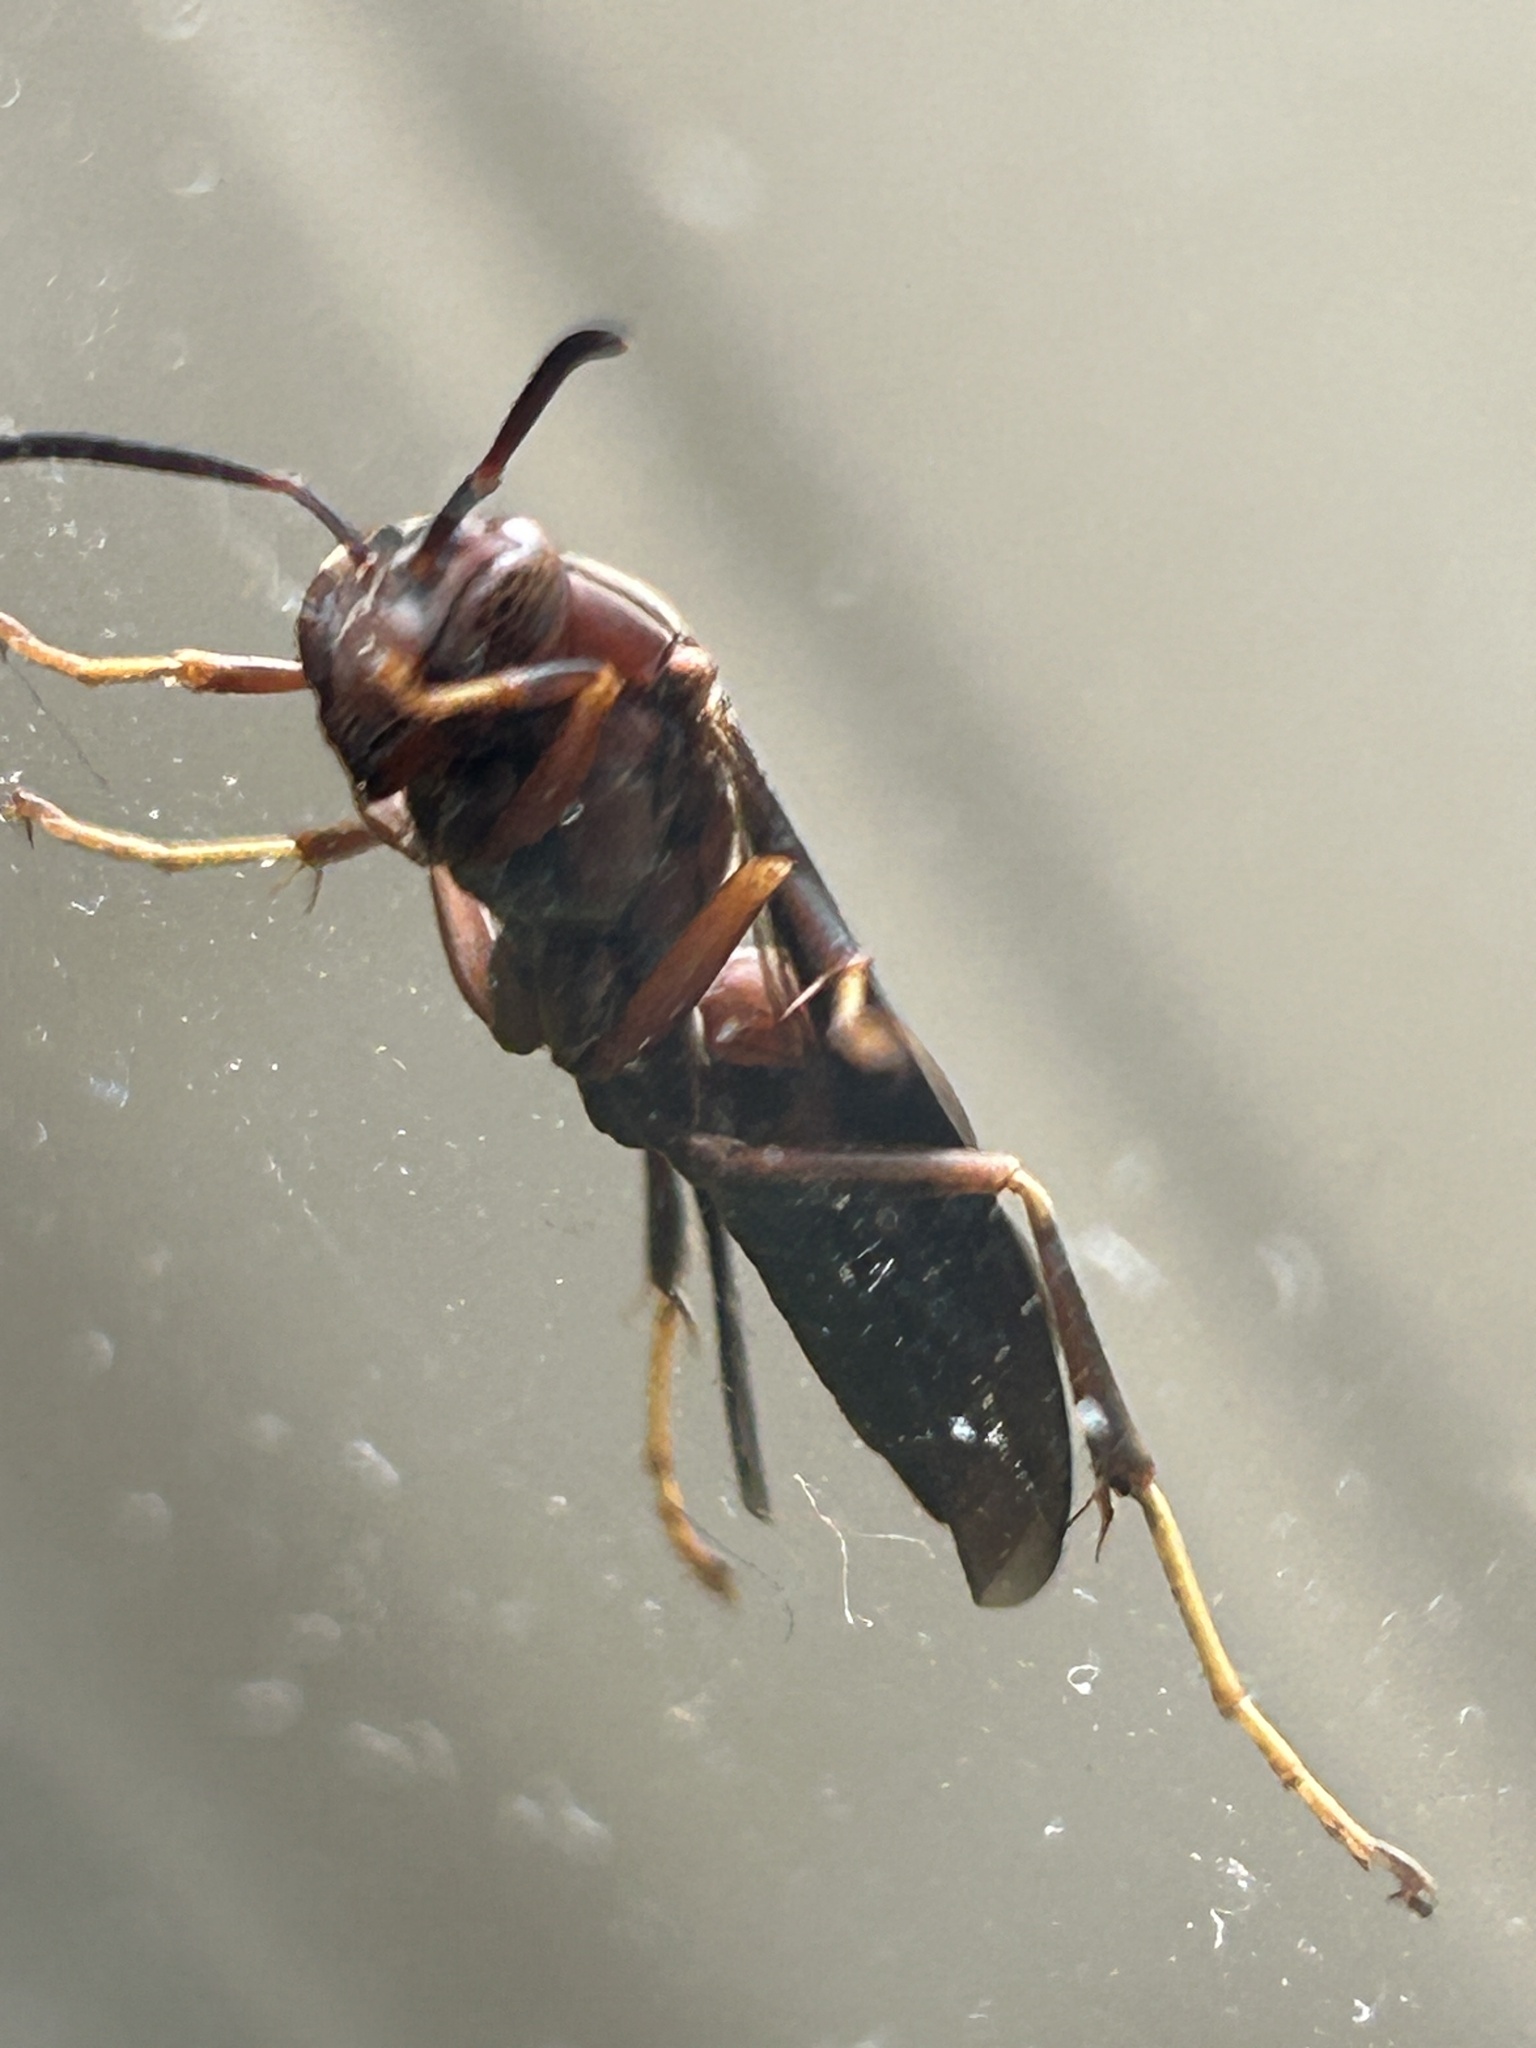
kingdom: Animalia
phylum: Arthropoda
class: Insecta
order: Hymenoptera
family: Eumenidae
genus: Polistes
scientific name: Polistes metricus
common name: Metric paper wasp
